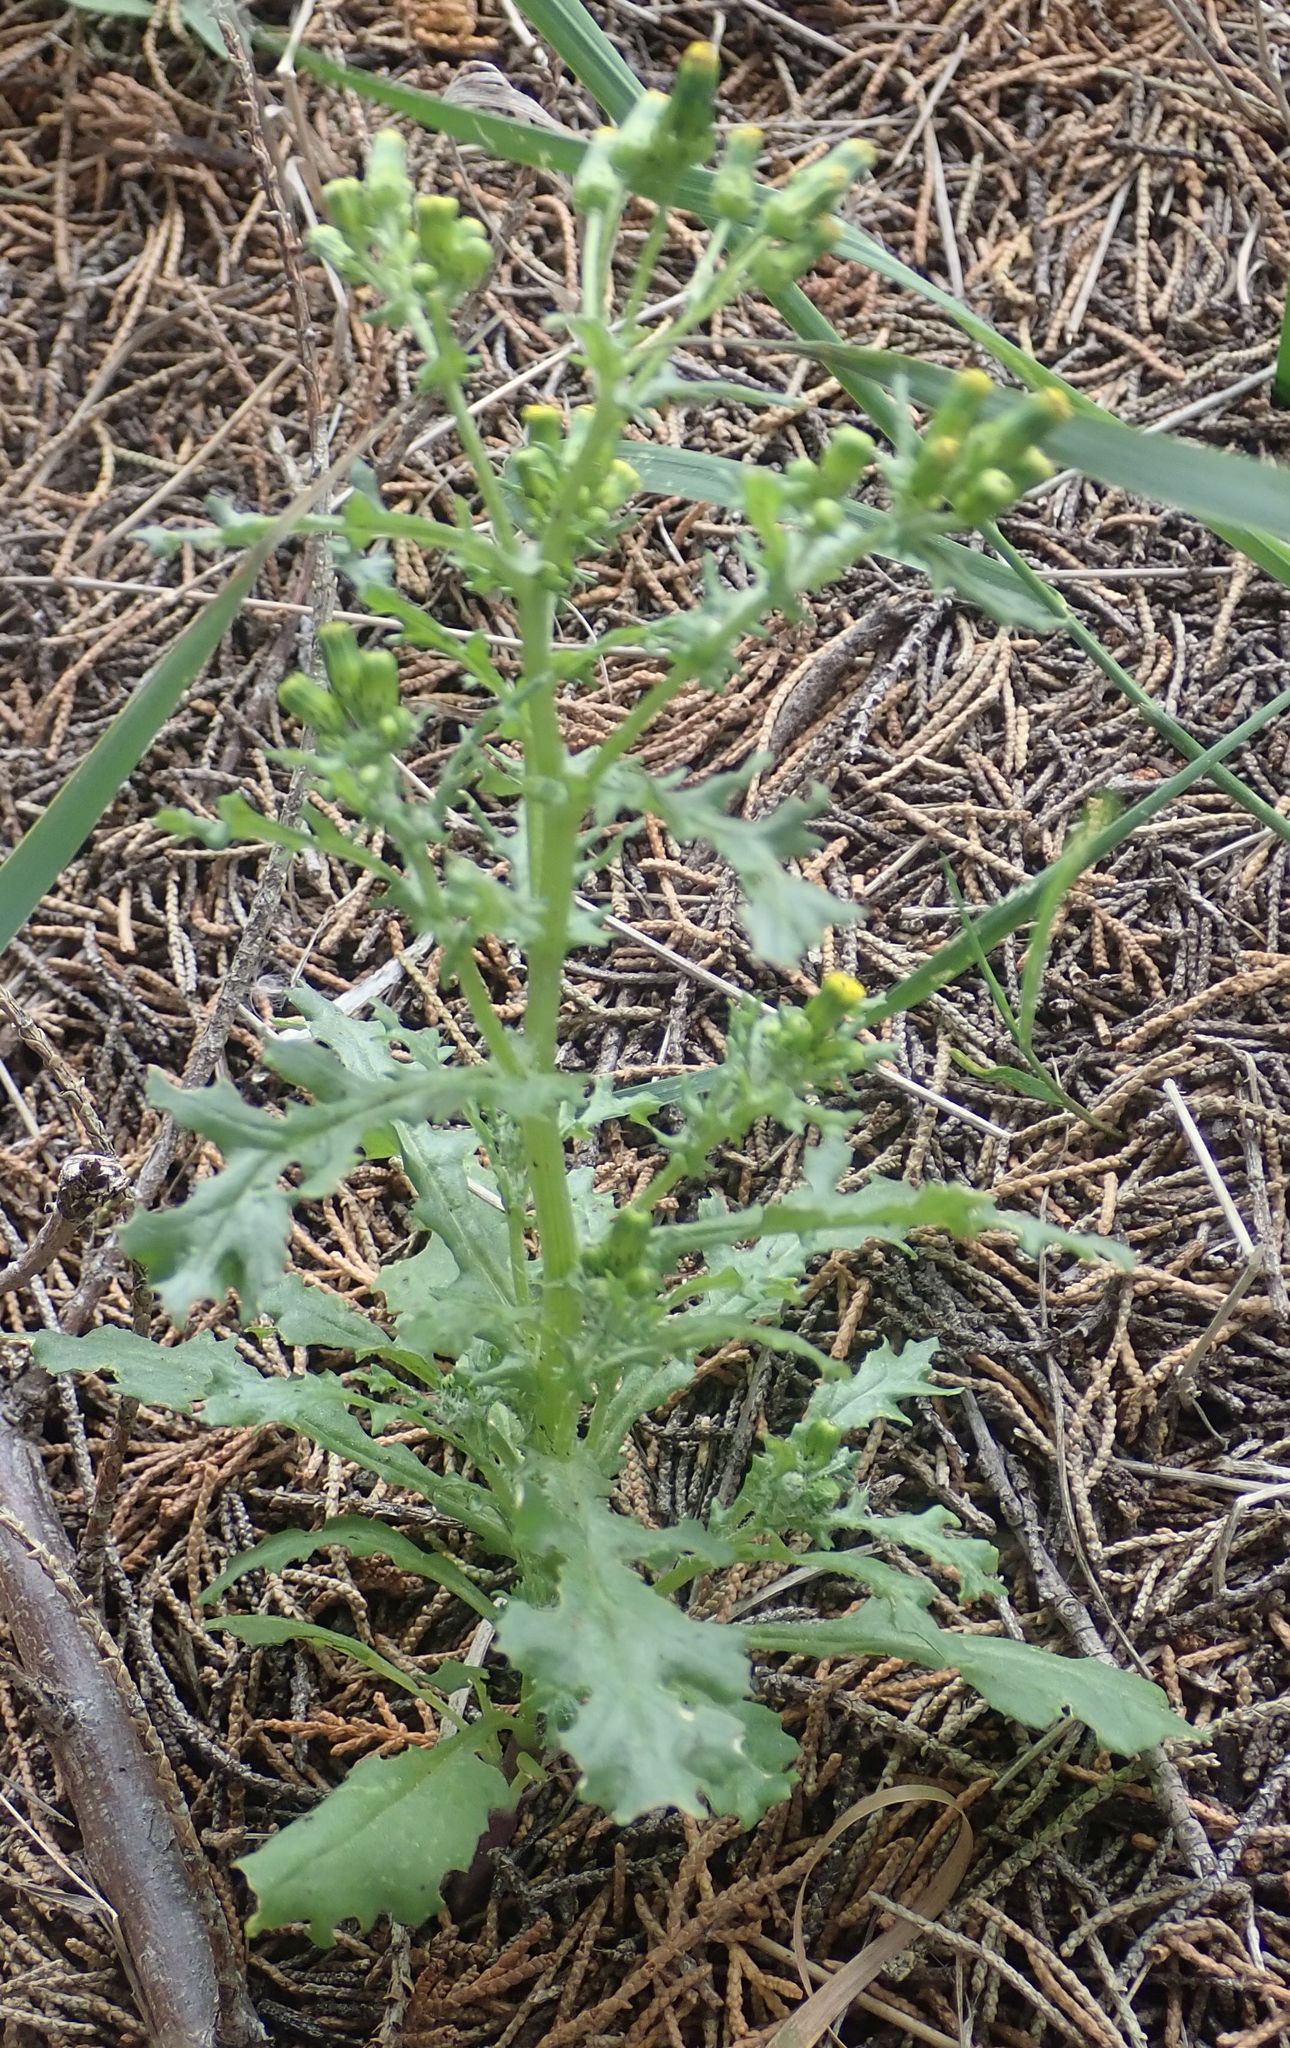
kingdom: Plantae
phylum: Tracheophyta
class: Magnoliopsida
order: Asterales
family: Asteraceae
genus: Senecio
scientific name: Senecio vulgaris
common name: Old-man-in-the-spring
